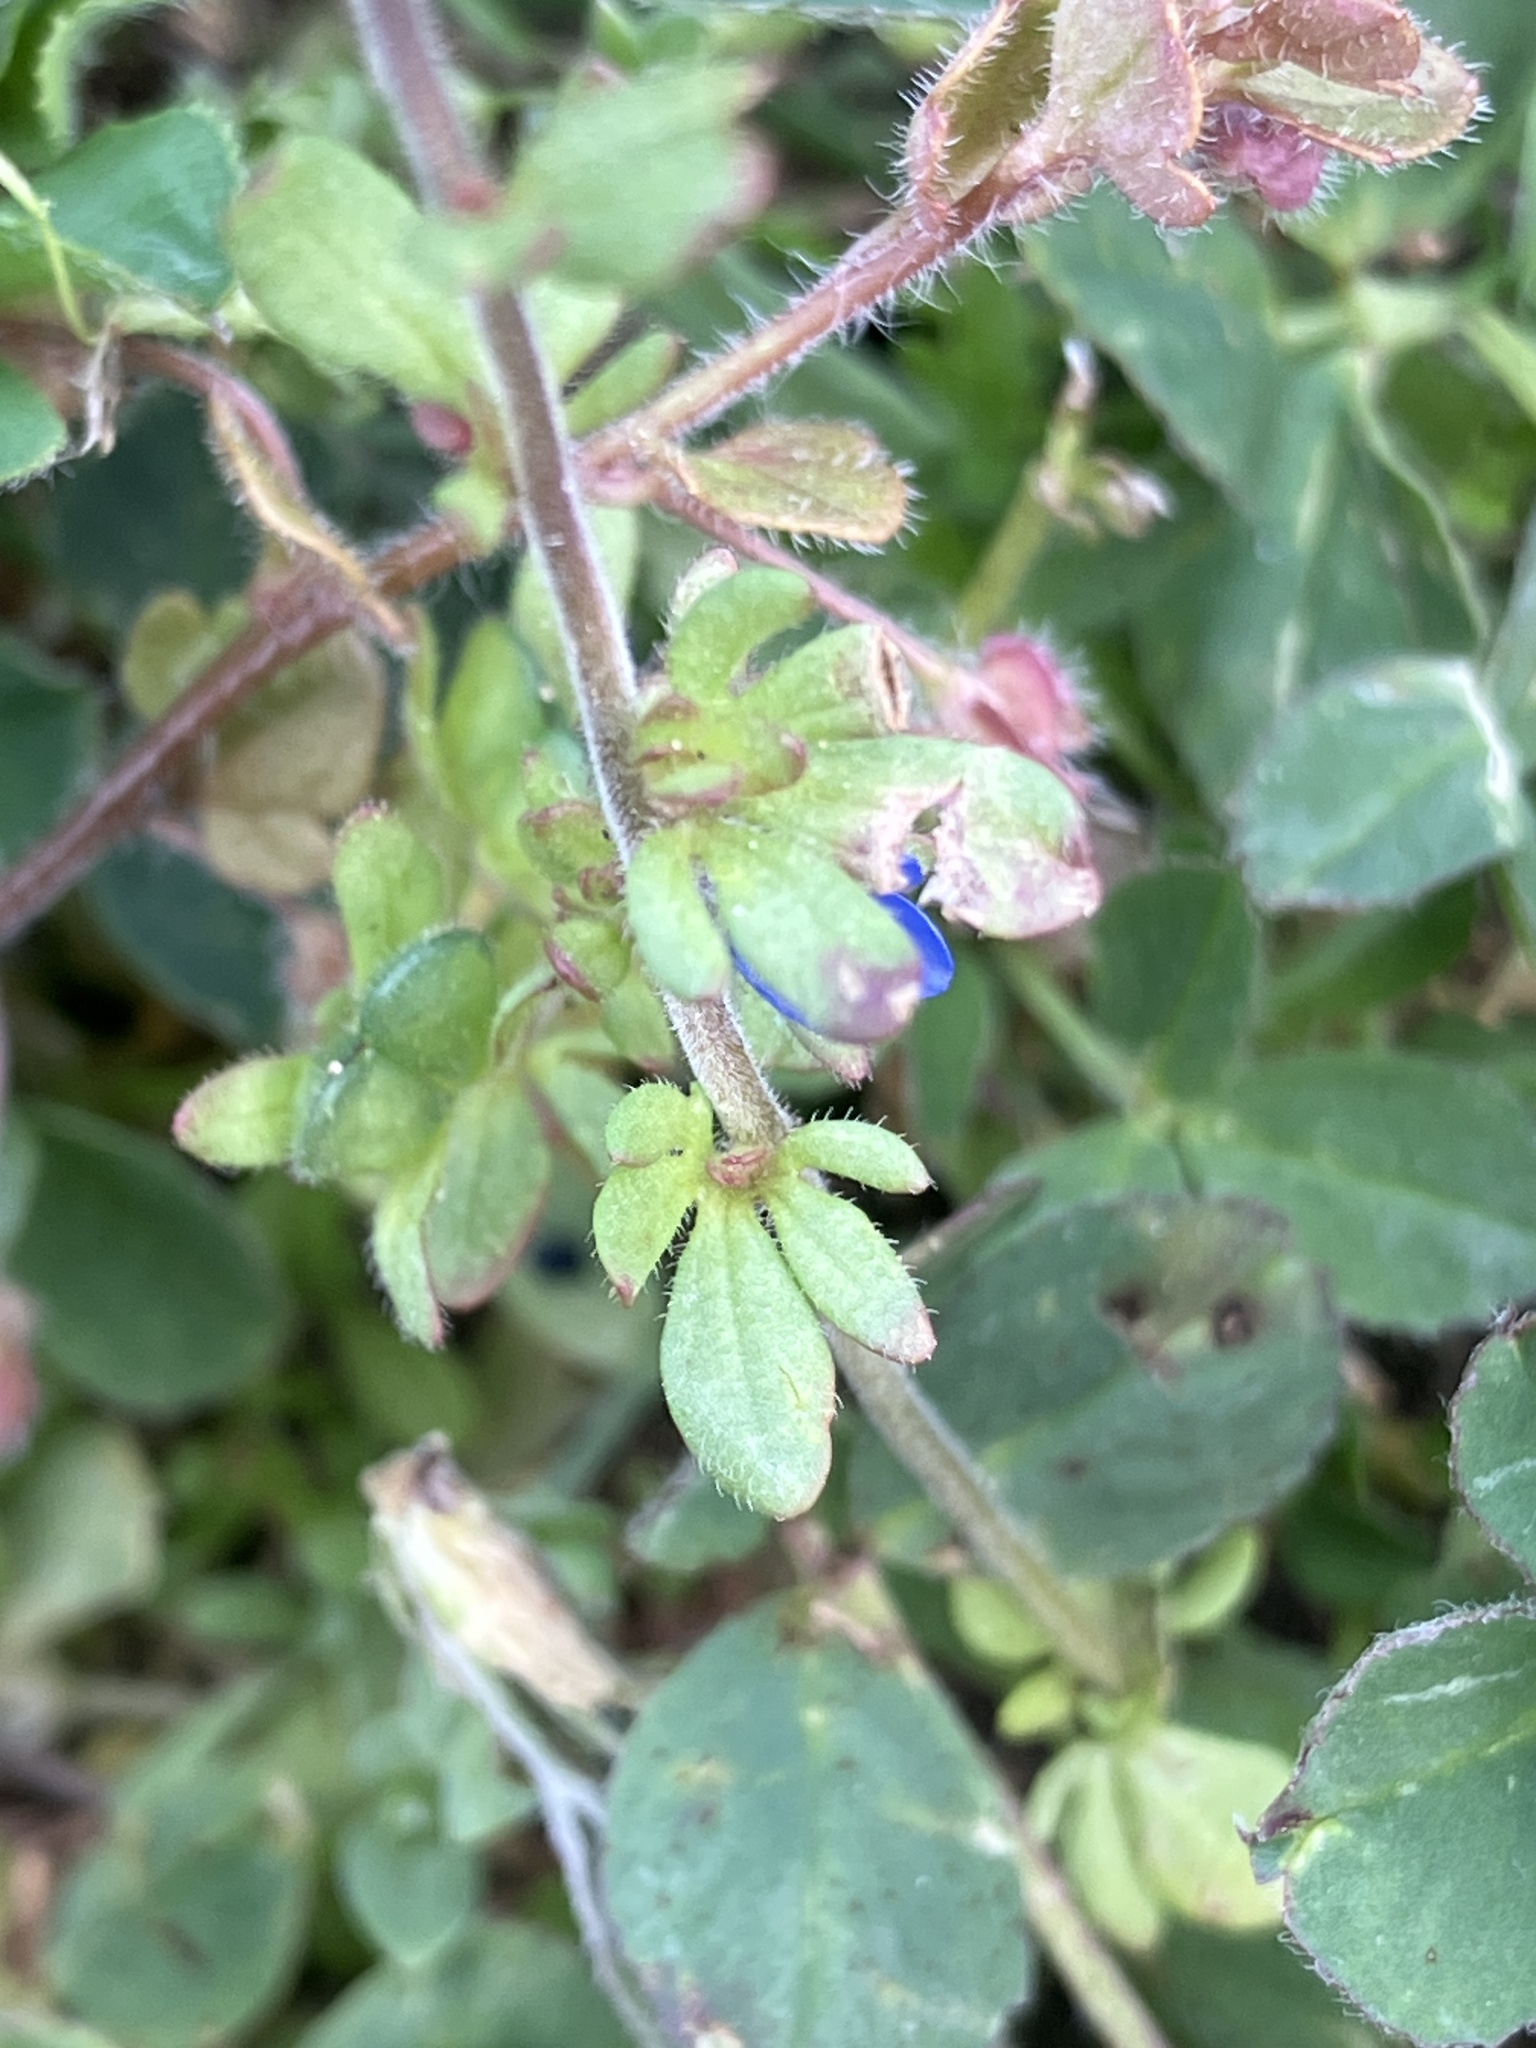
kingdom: Plantae
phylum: Tracheophyta
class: Magnoliopsida
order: Lamiales
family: Plantaginaceae
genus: Veronica
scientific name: Veronica triphyllos
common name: Fingered speedwell
